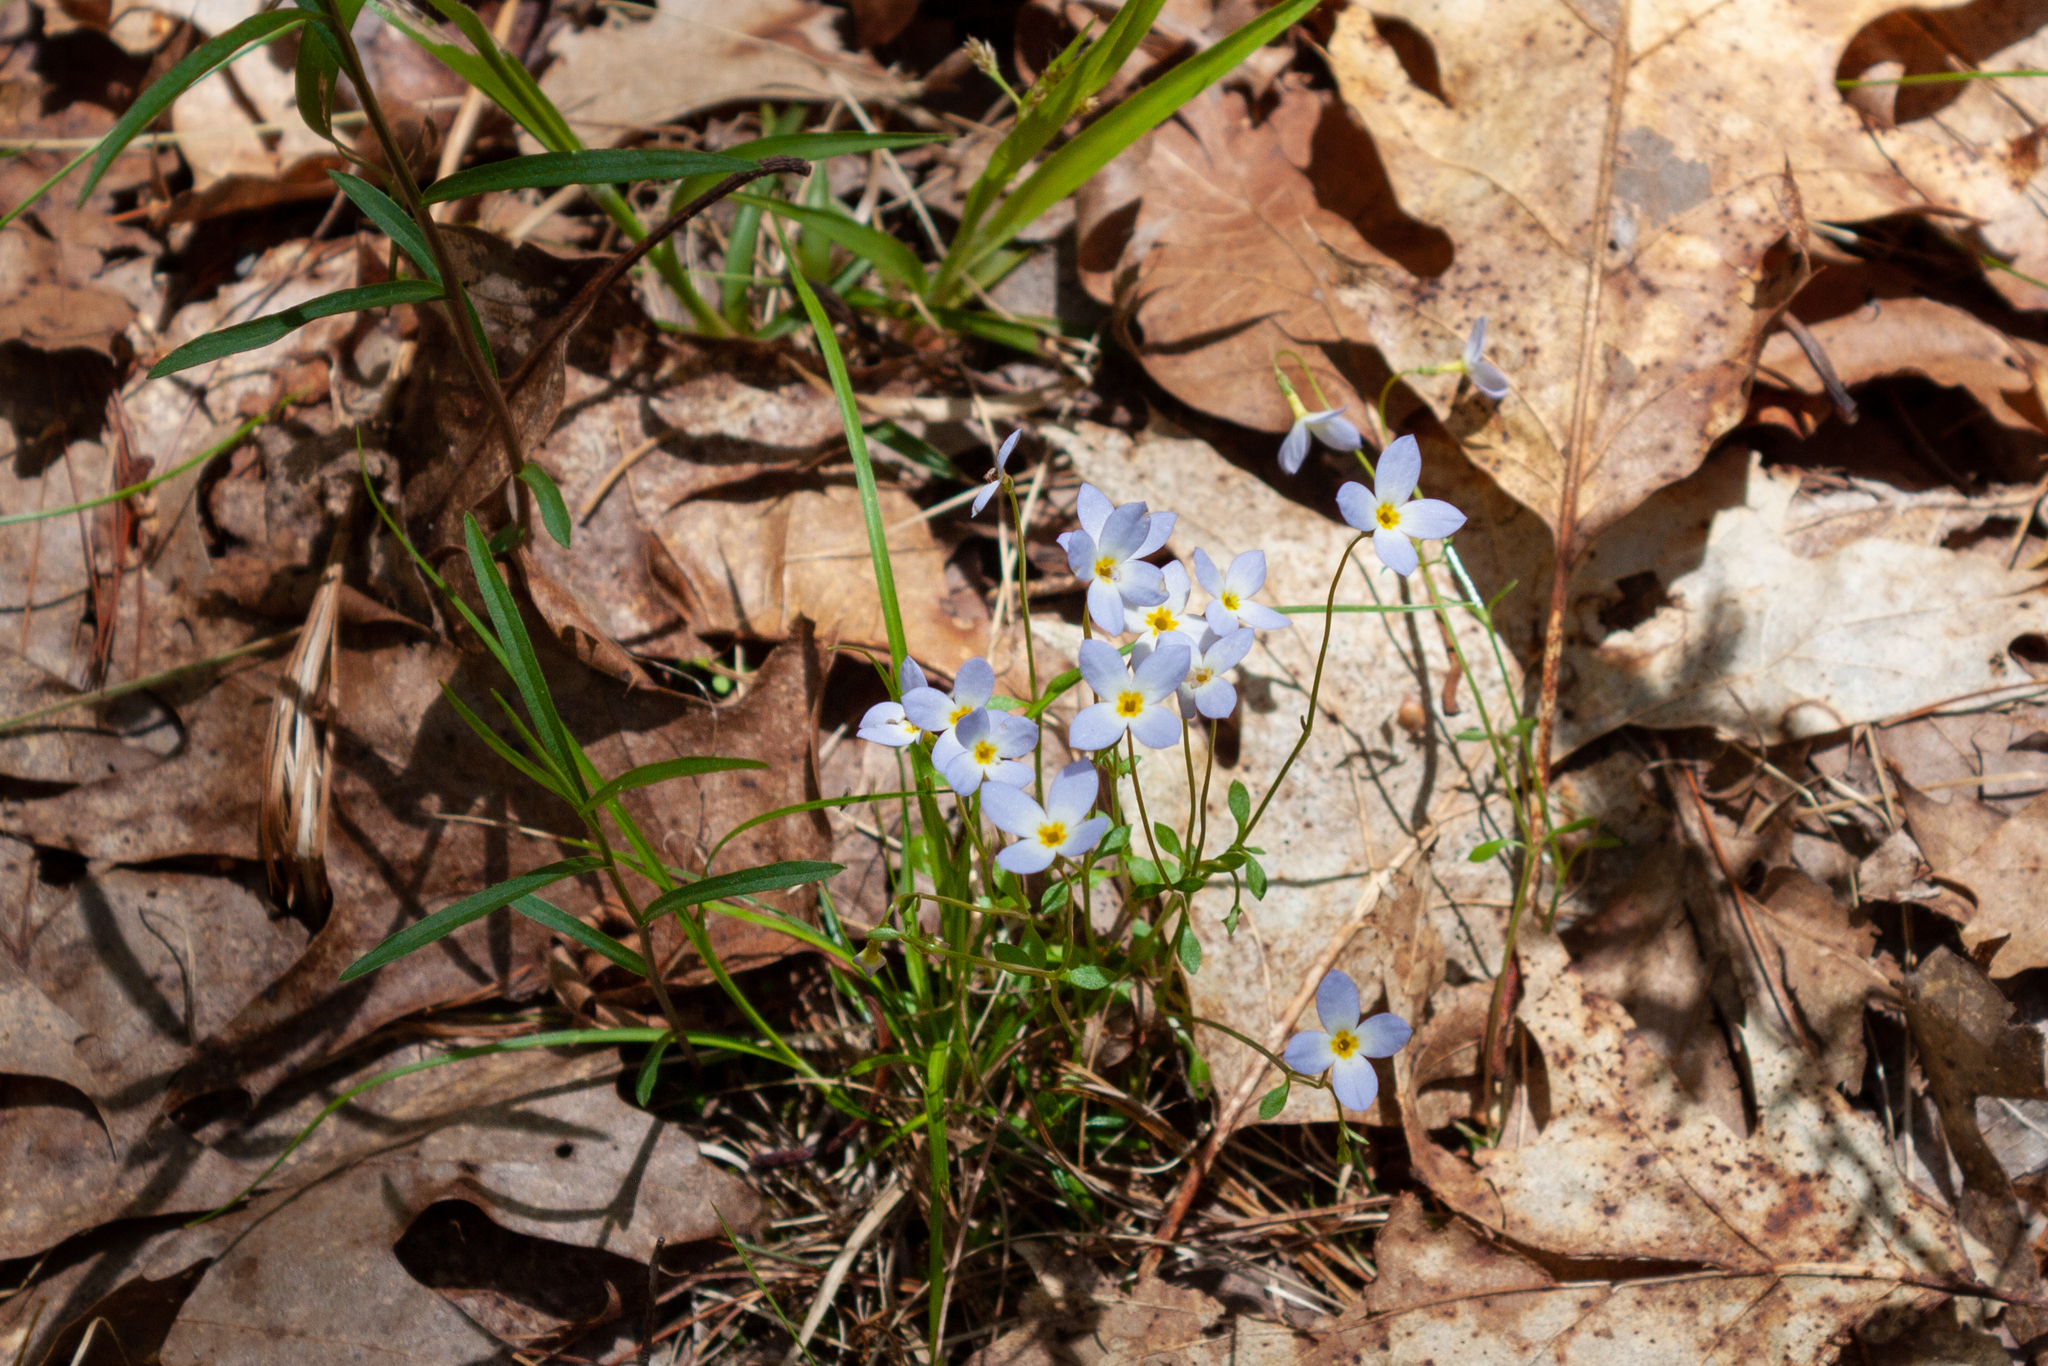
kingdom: Plantae
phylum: Tracheophyta
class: Magnoliopsida
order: Gentianales
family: Rubiaceae
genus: Houstonia
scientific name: Houstonia caerulea
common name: Bluets
